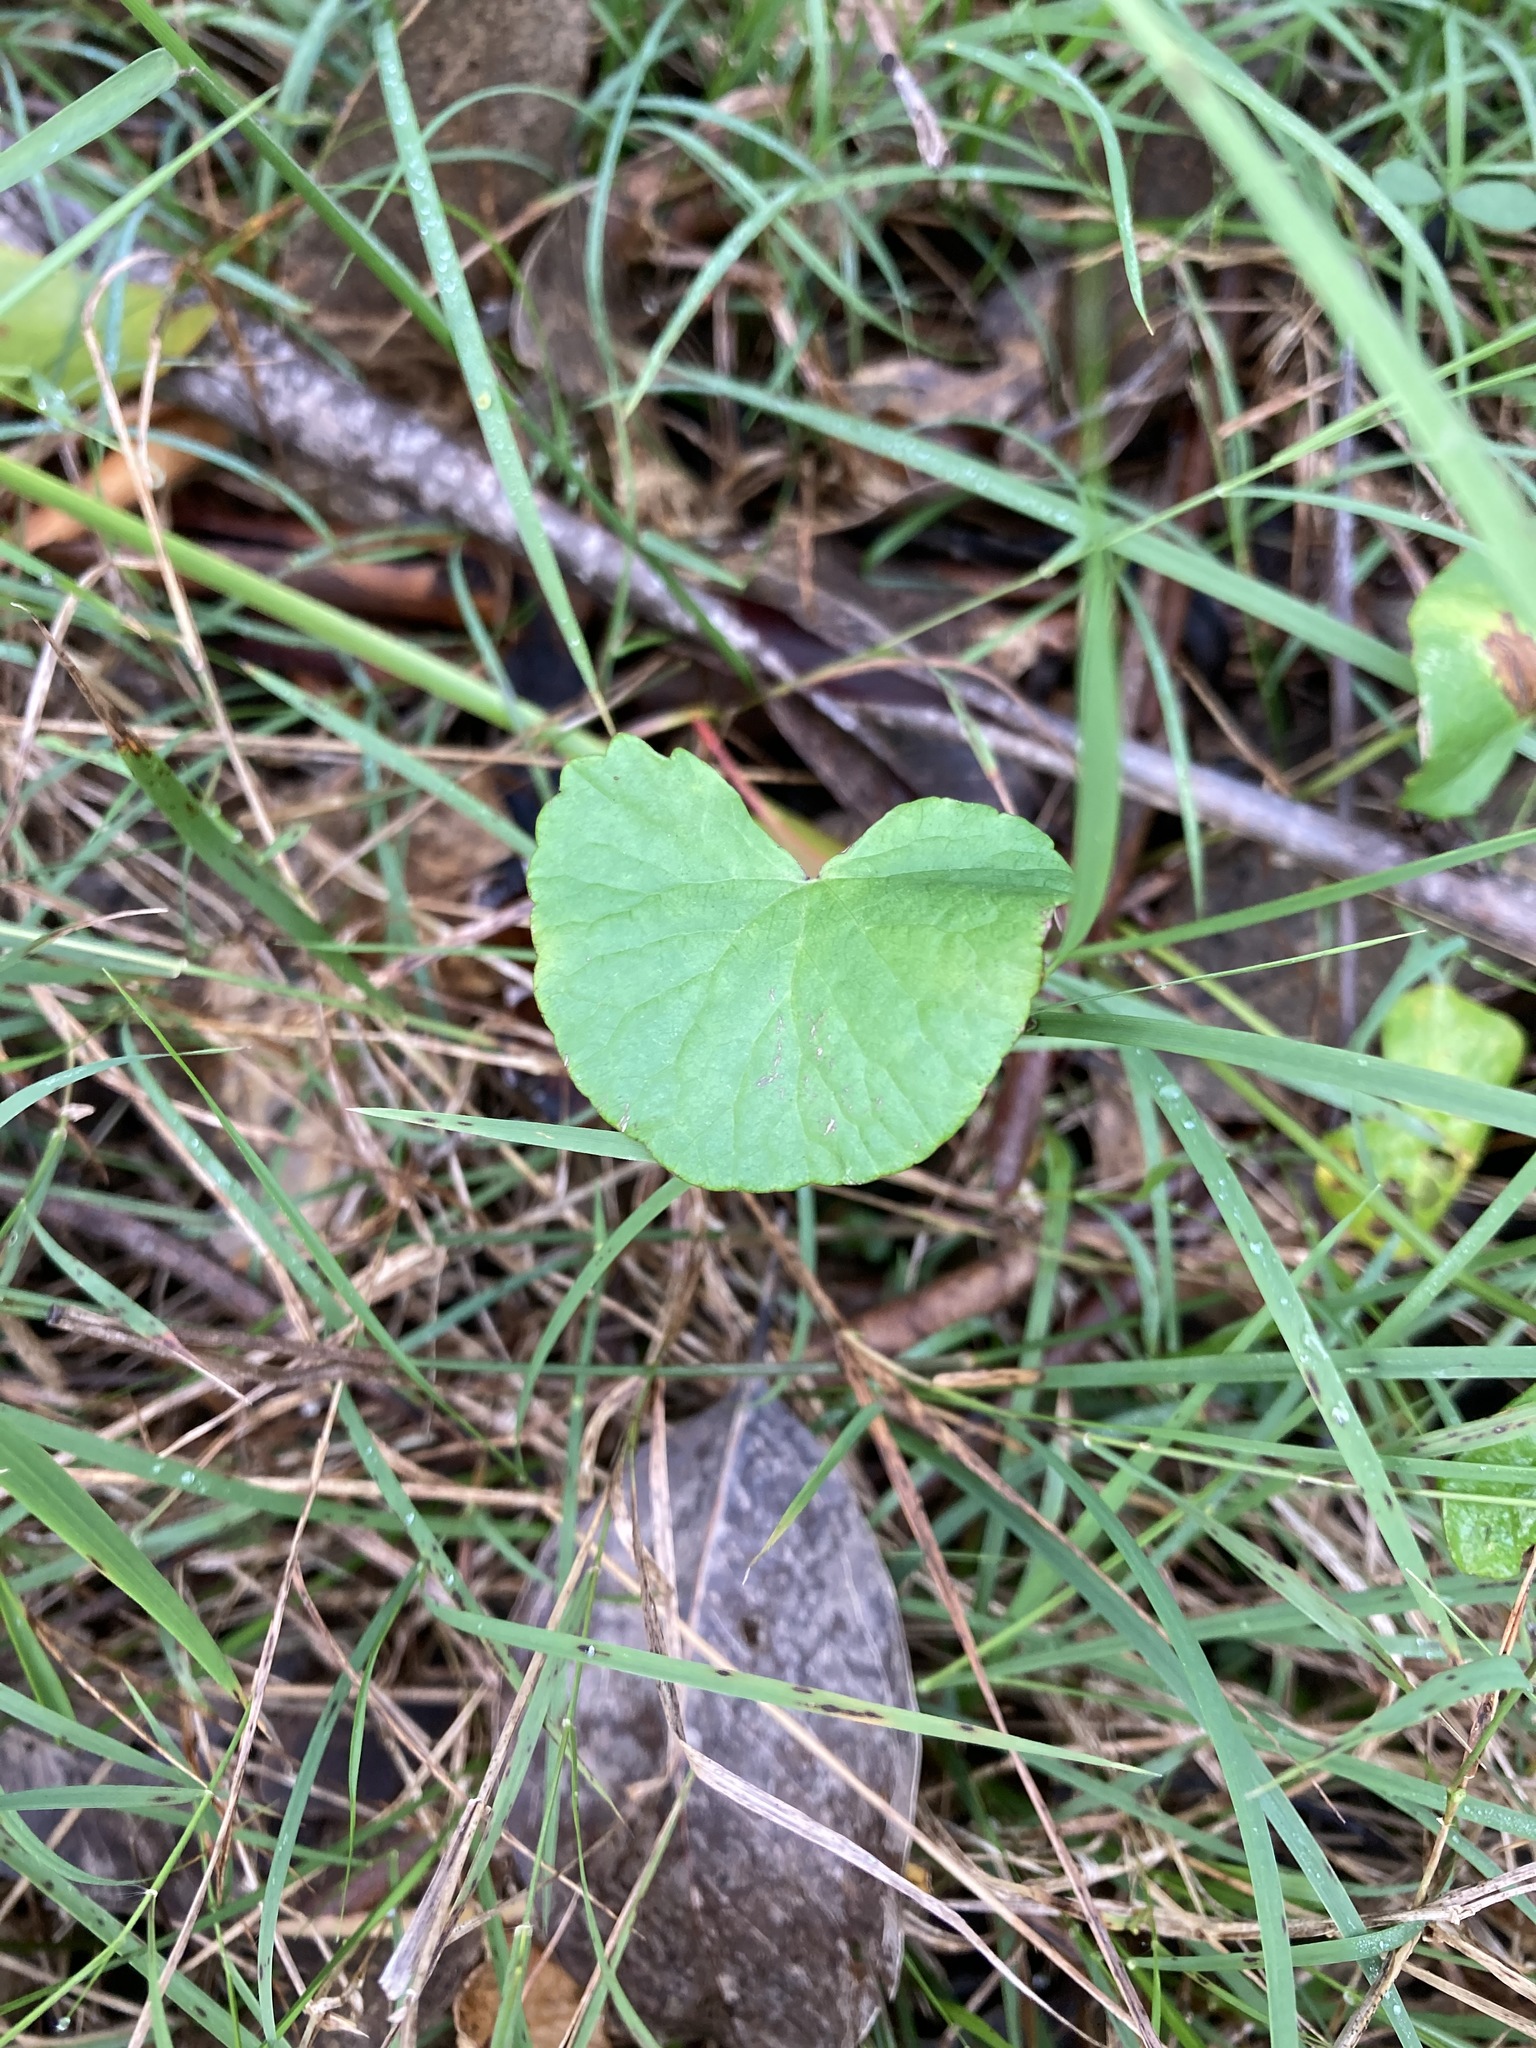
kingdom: Plantae
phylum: Tracheophyta
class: Magnoliopsida
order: Apiales
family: Apiaceae
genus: Centella
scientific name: Centella asiatica
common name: Spadeleaf
